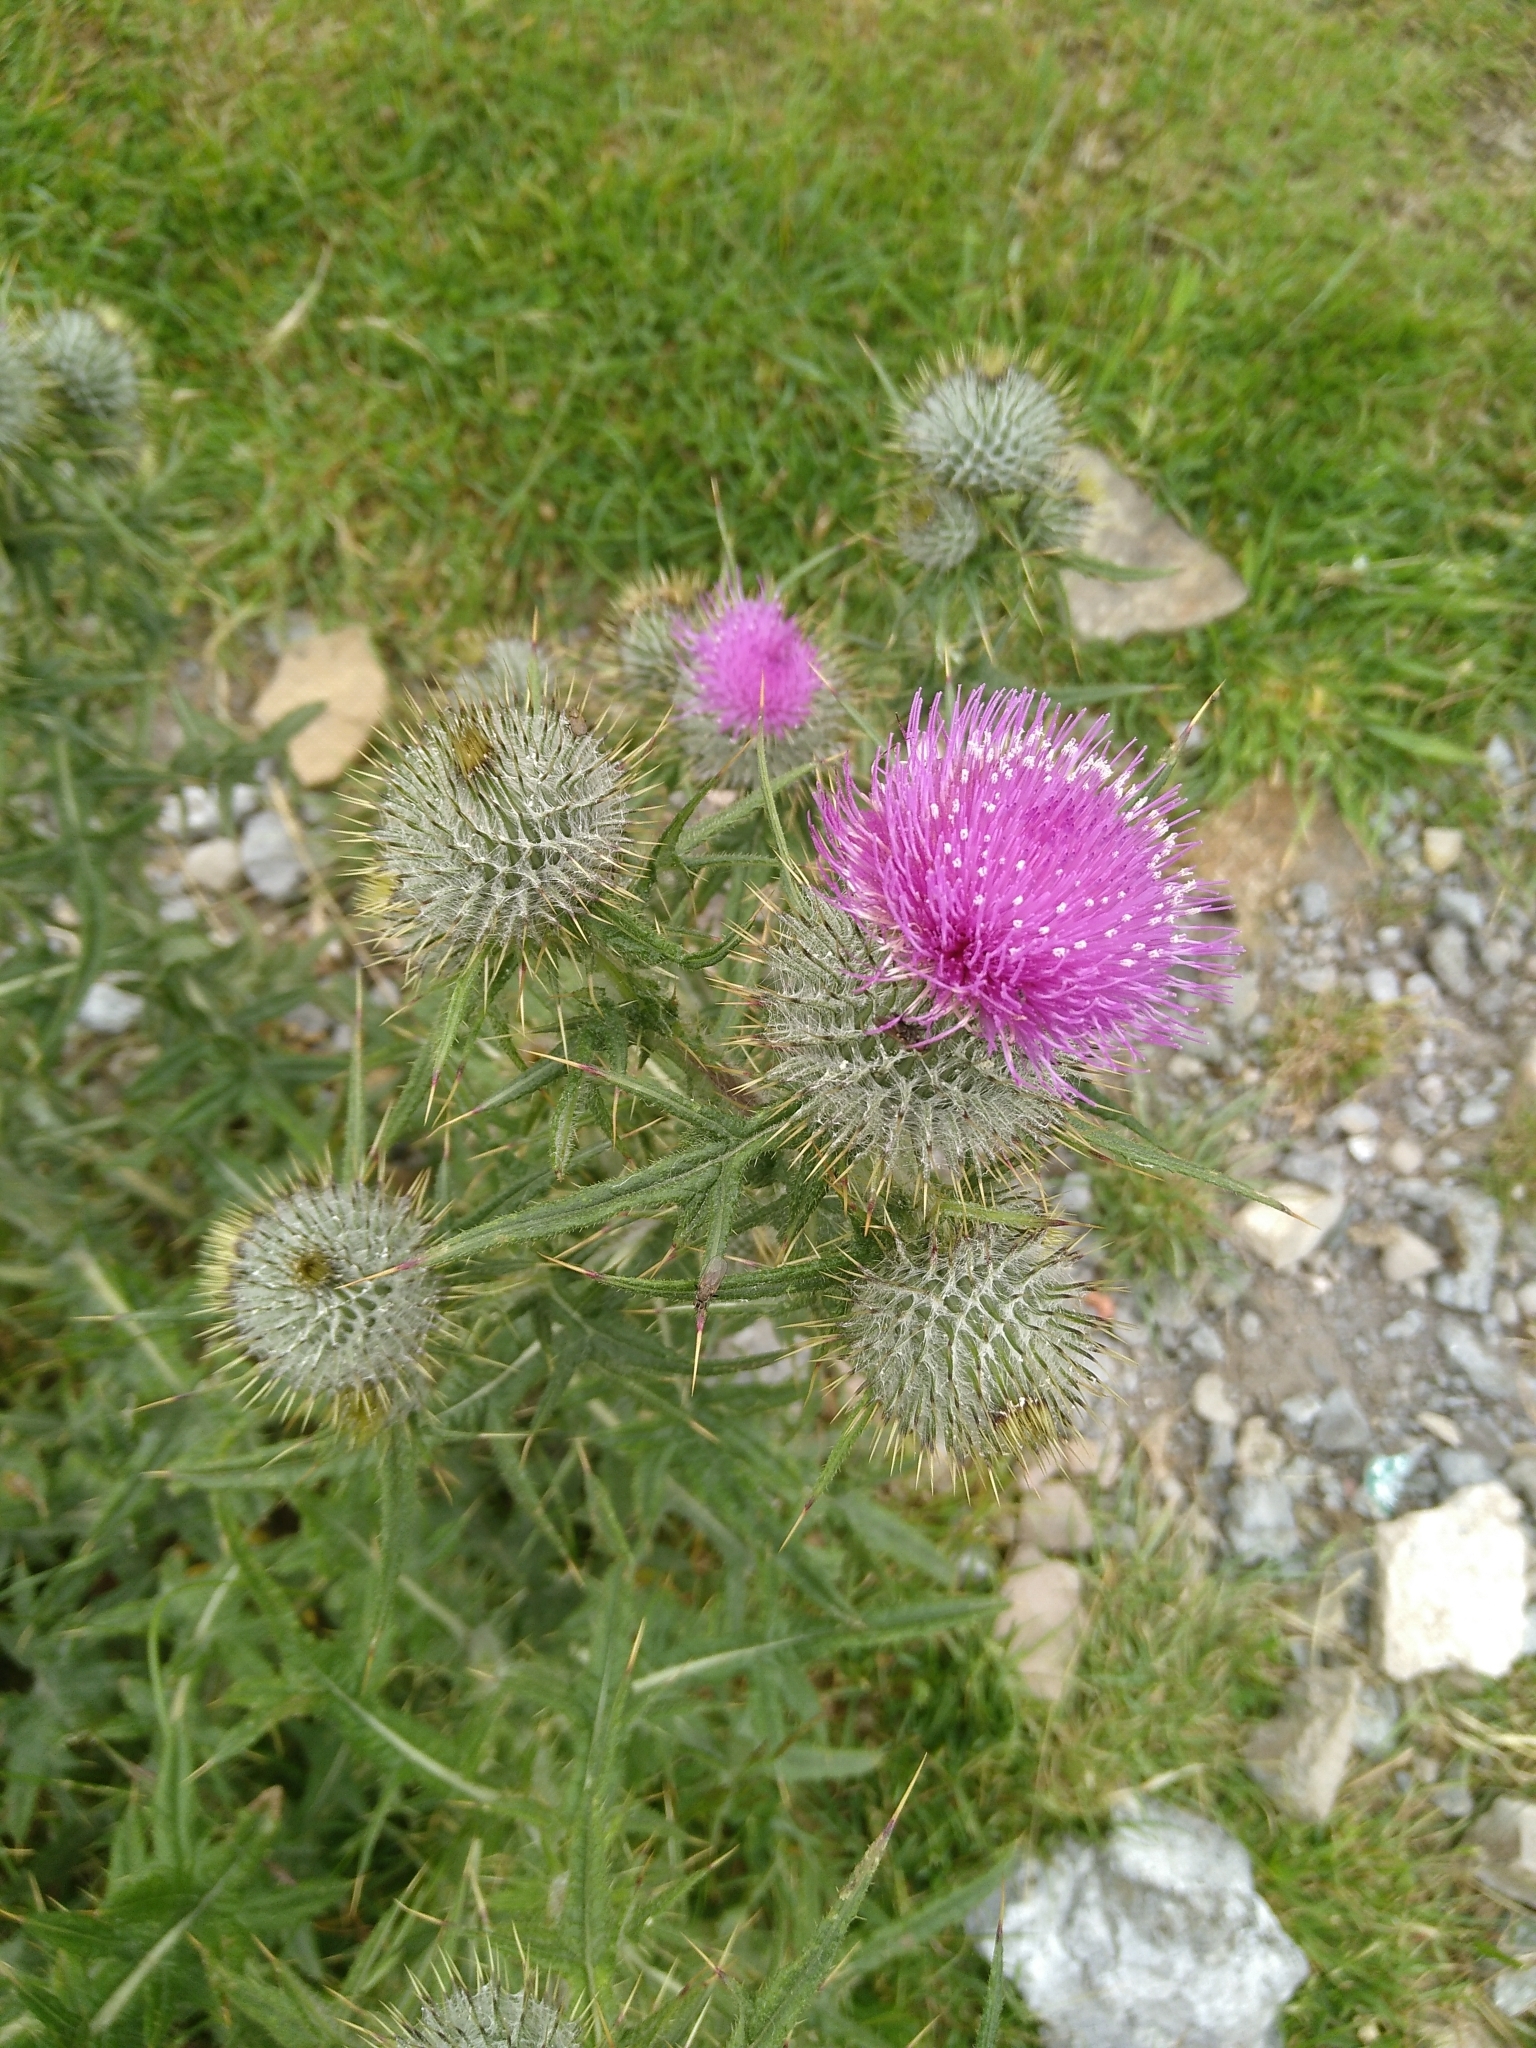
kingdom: Plantae
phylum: Tracheophyta
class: Magnoliopsida
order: Asterales
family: Asteraceae
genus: Cirsium
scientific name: Cirsium vulgare
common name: Bull thistle
